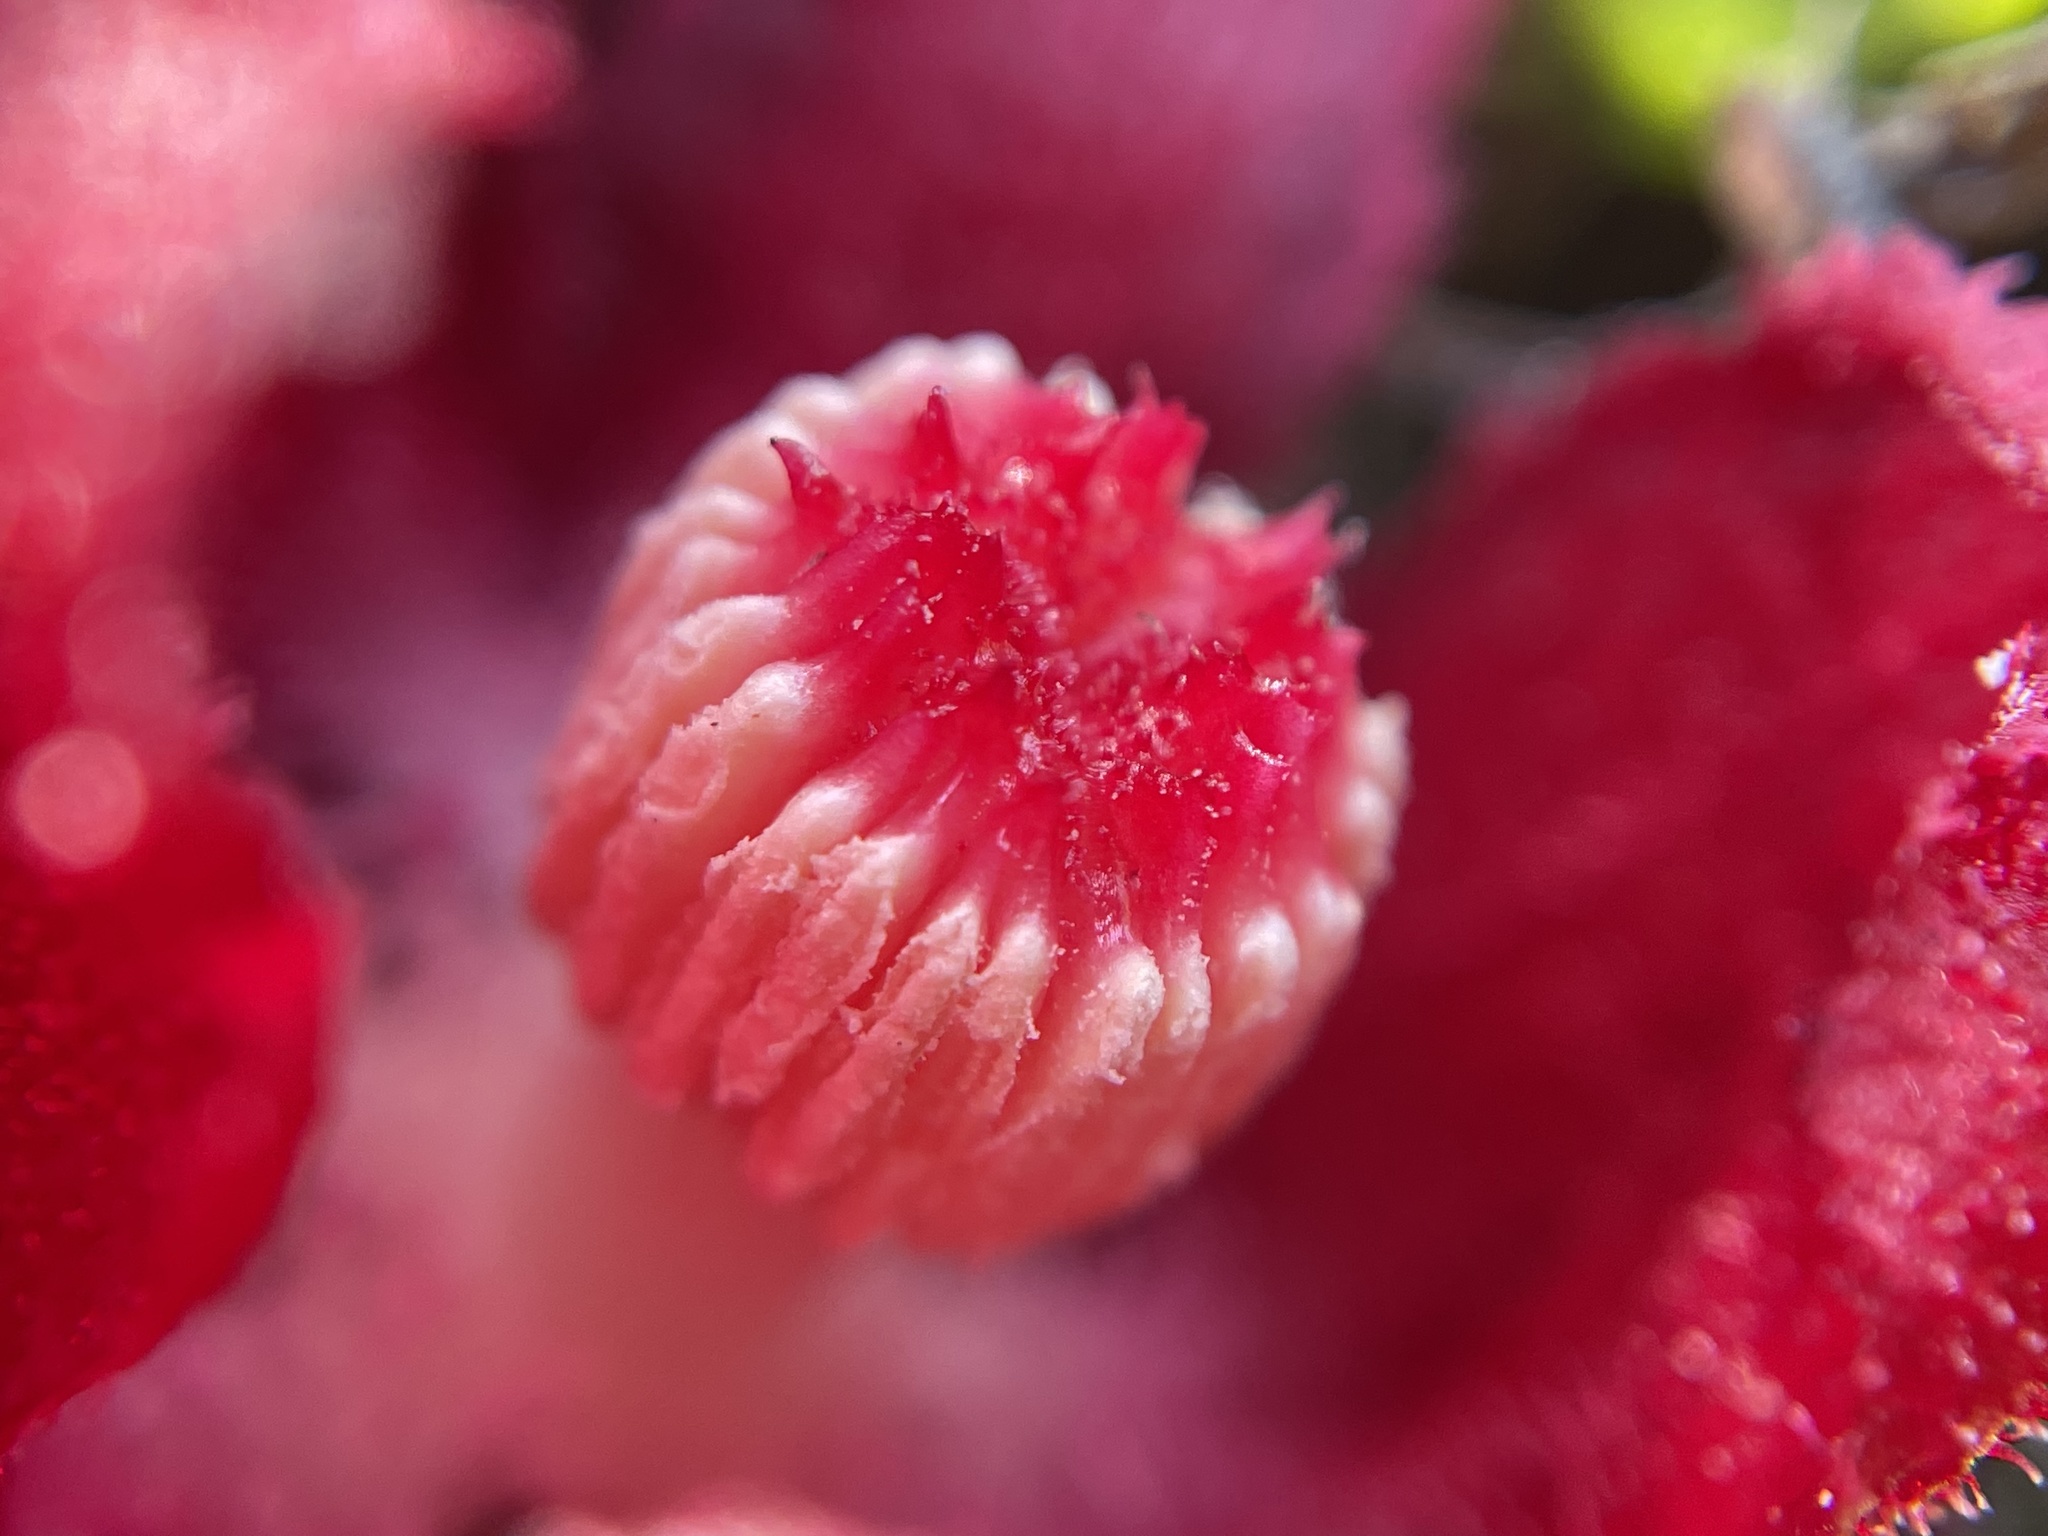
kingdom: Plantae
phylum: Tracheophyta
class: Magnoliopsida
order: Malvales
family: Cytinaceae
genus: Cytinus
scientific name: Cytinus sanguineus
